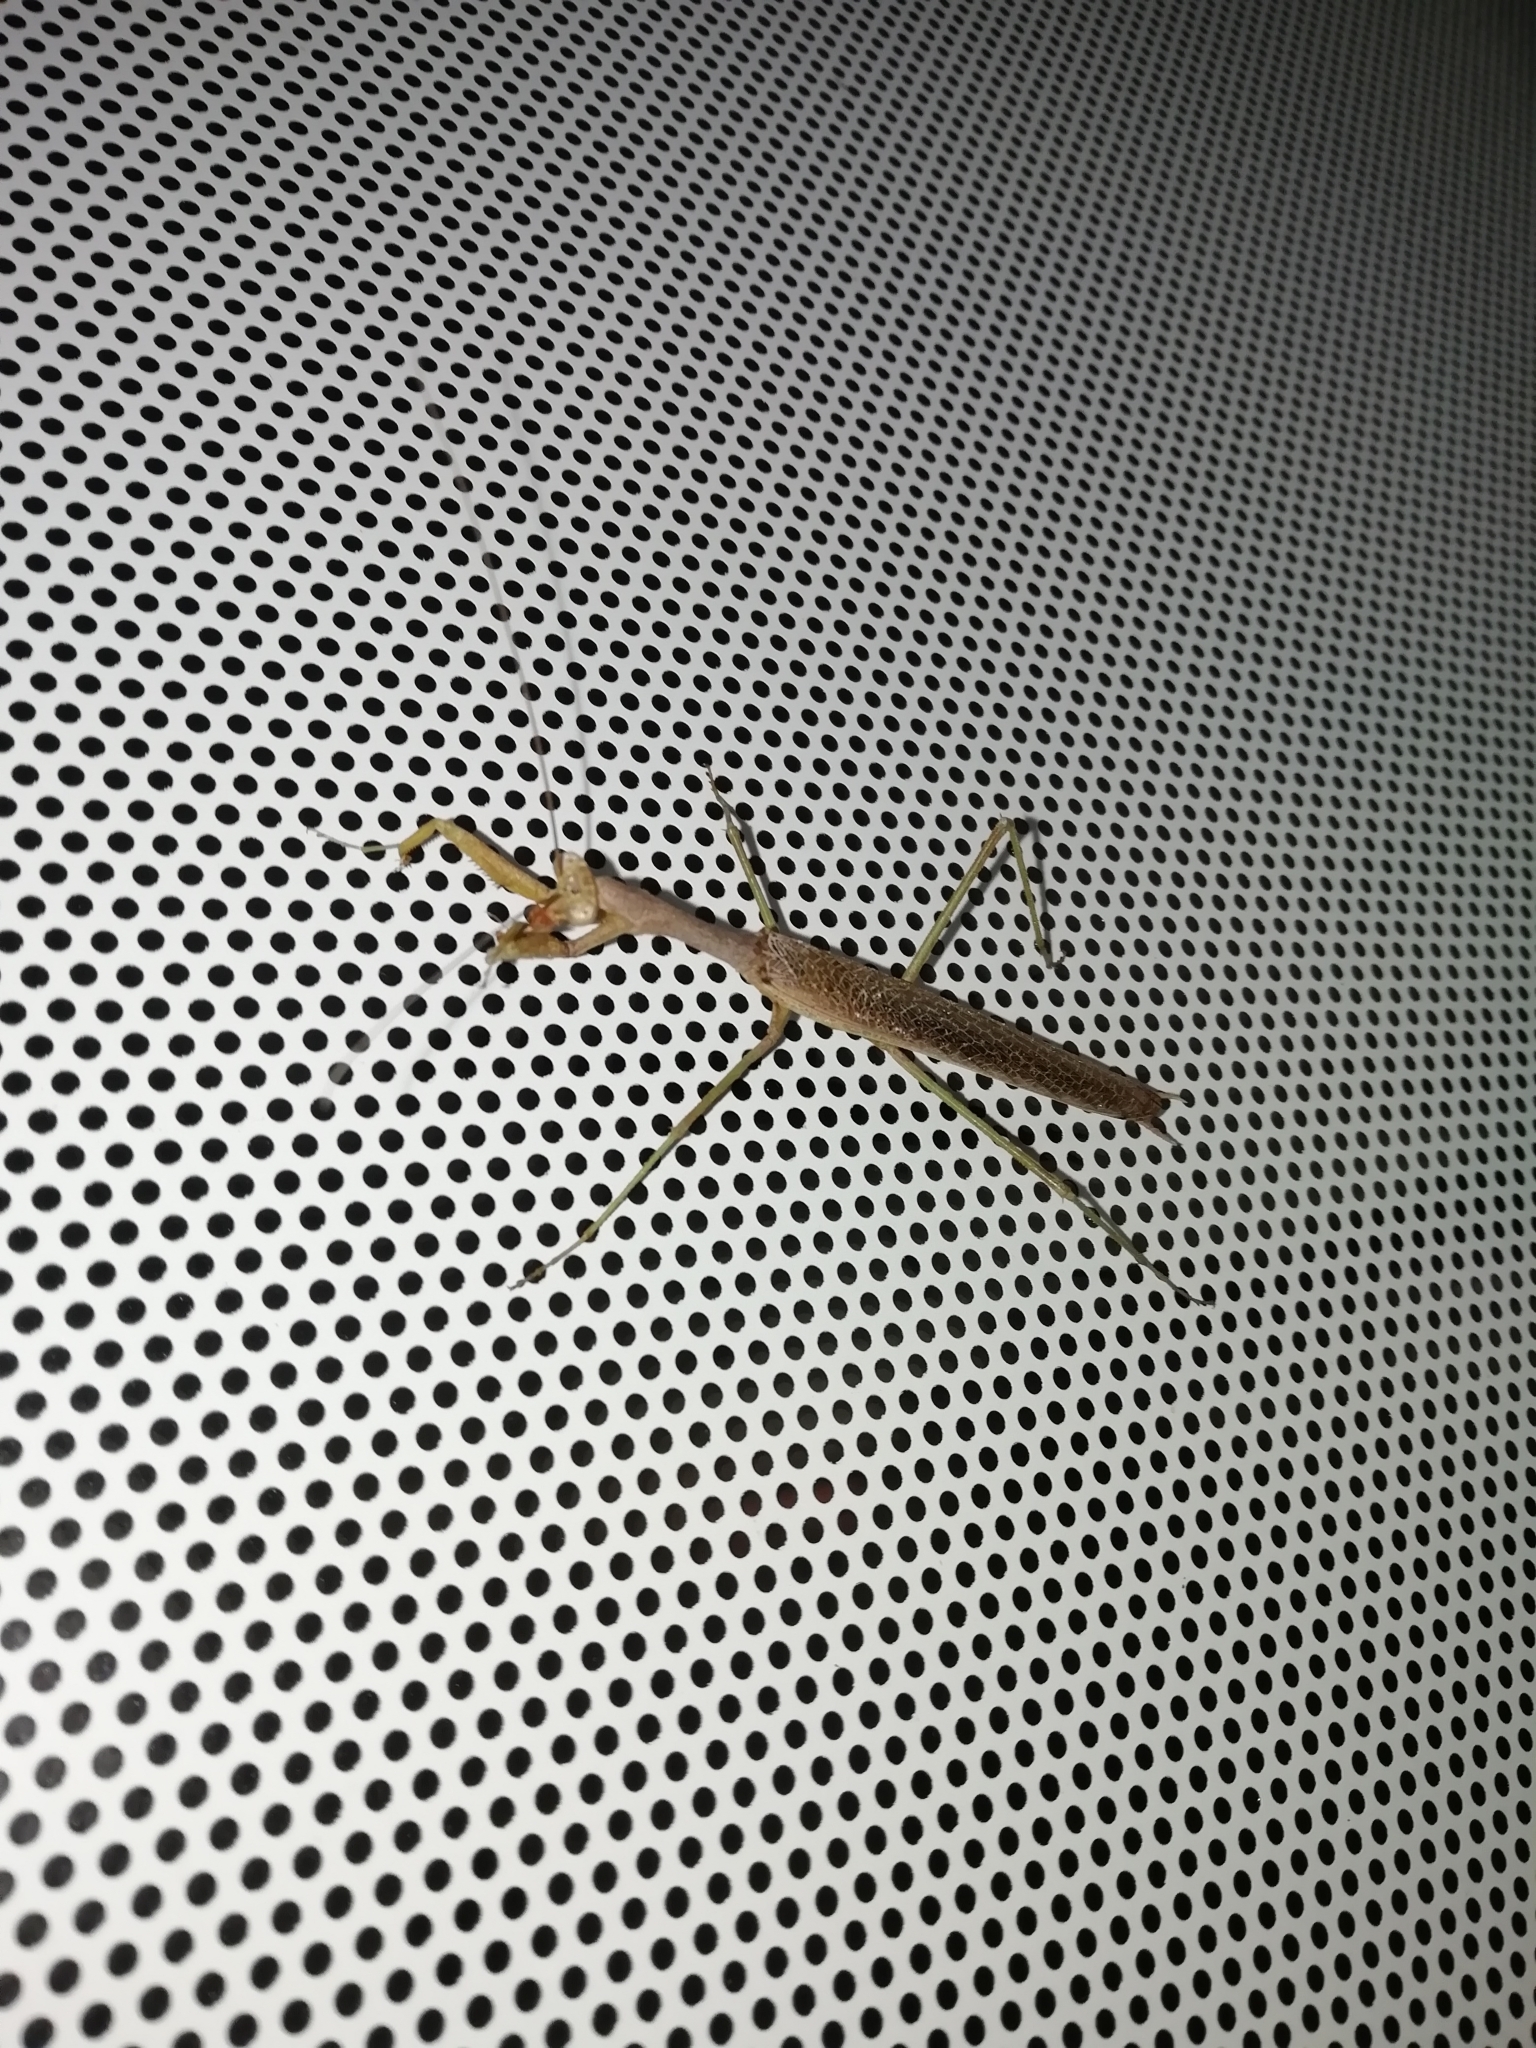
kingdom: Animalia
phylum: Arthropoda
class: Insecta
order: Mantodea
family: Coptopterygidae
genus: Coptopteryx
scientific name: Coptopteryx gayi
